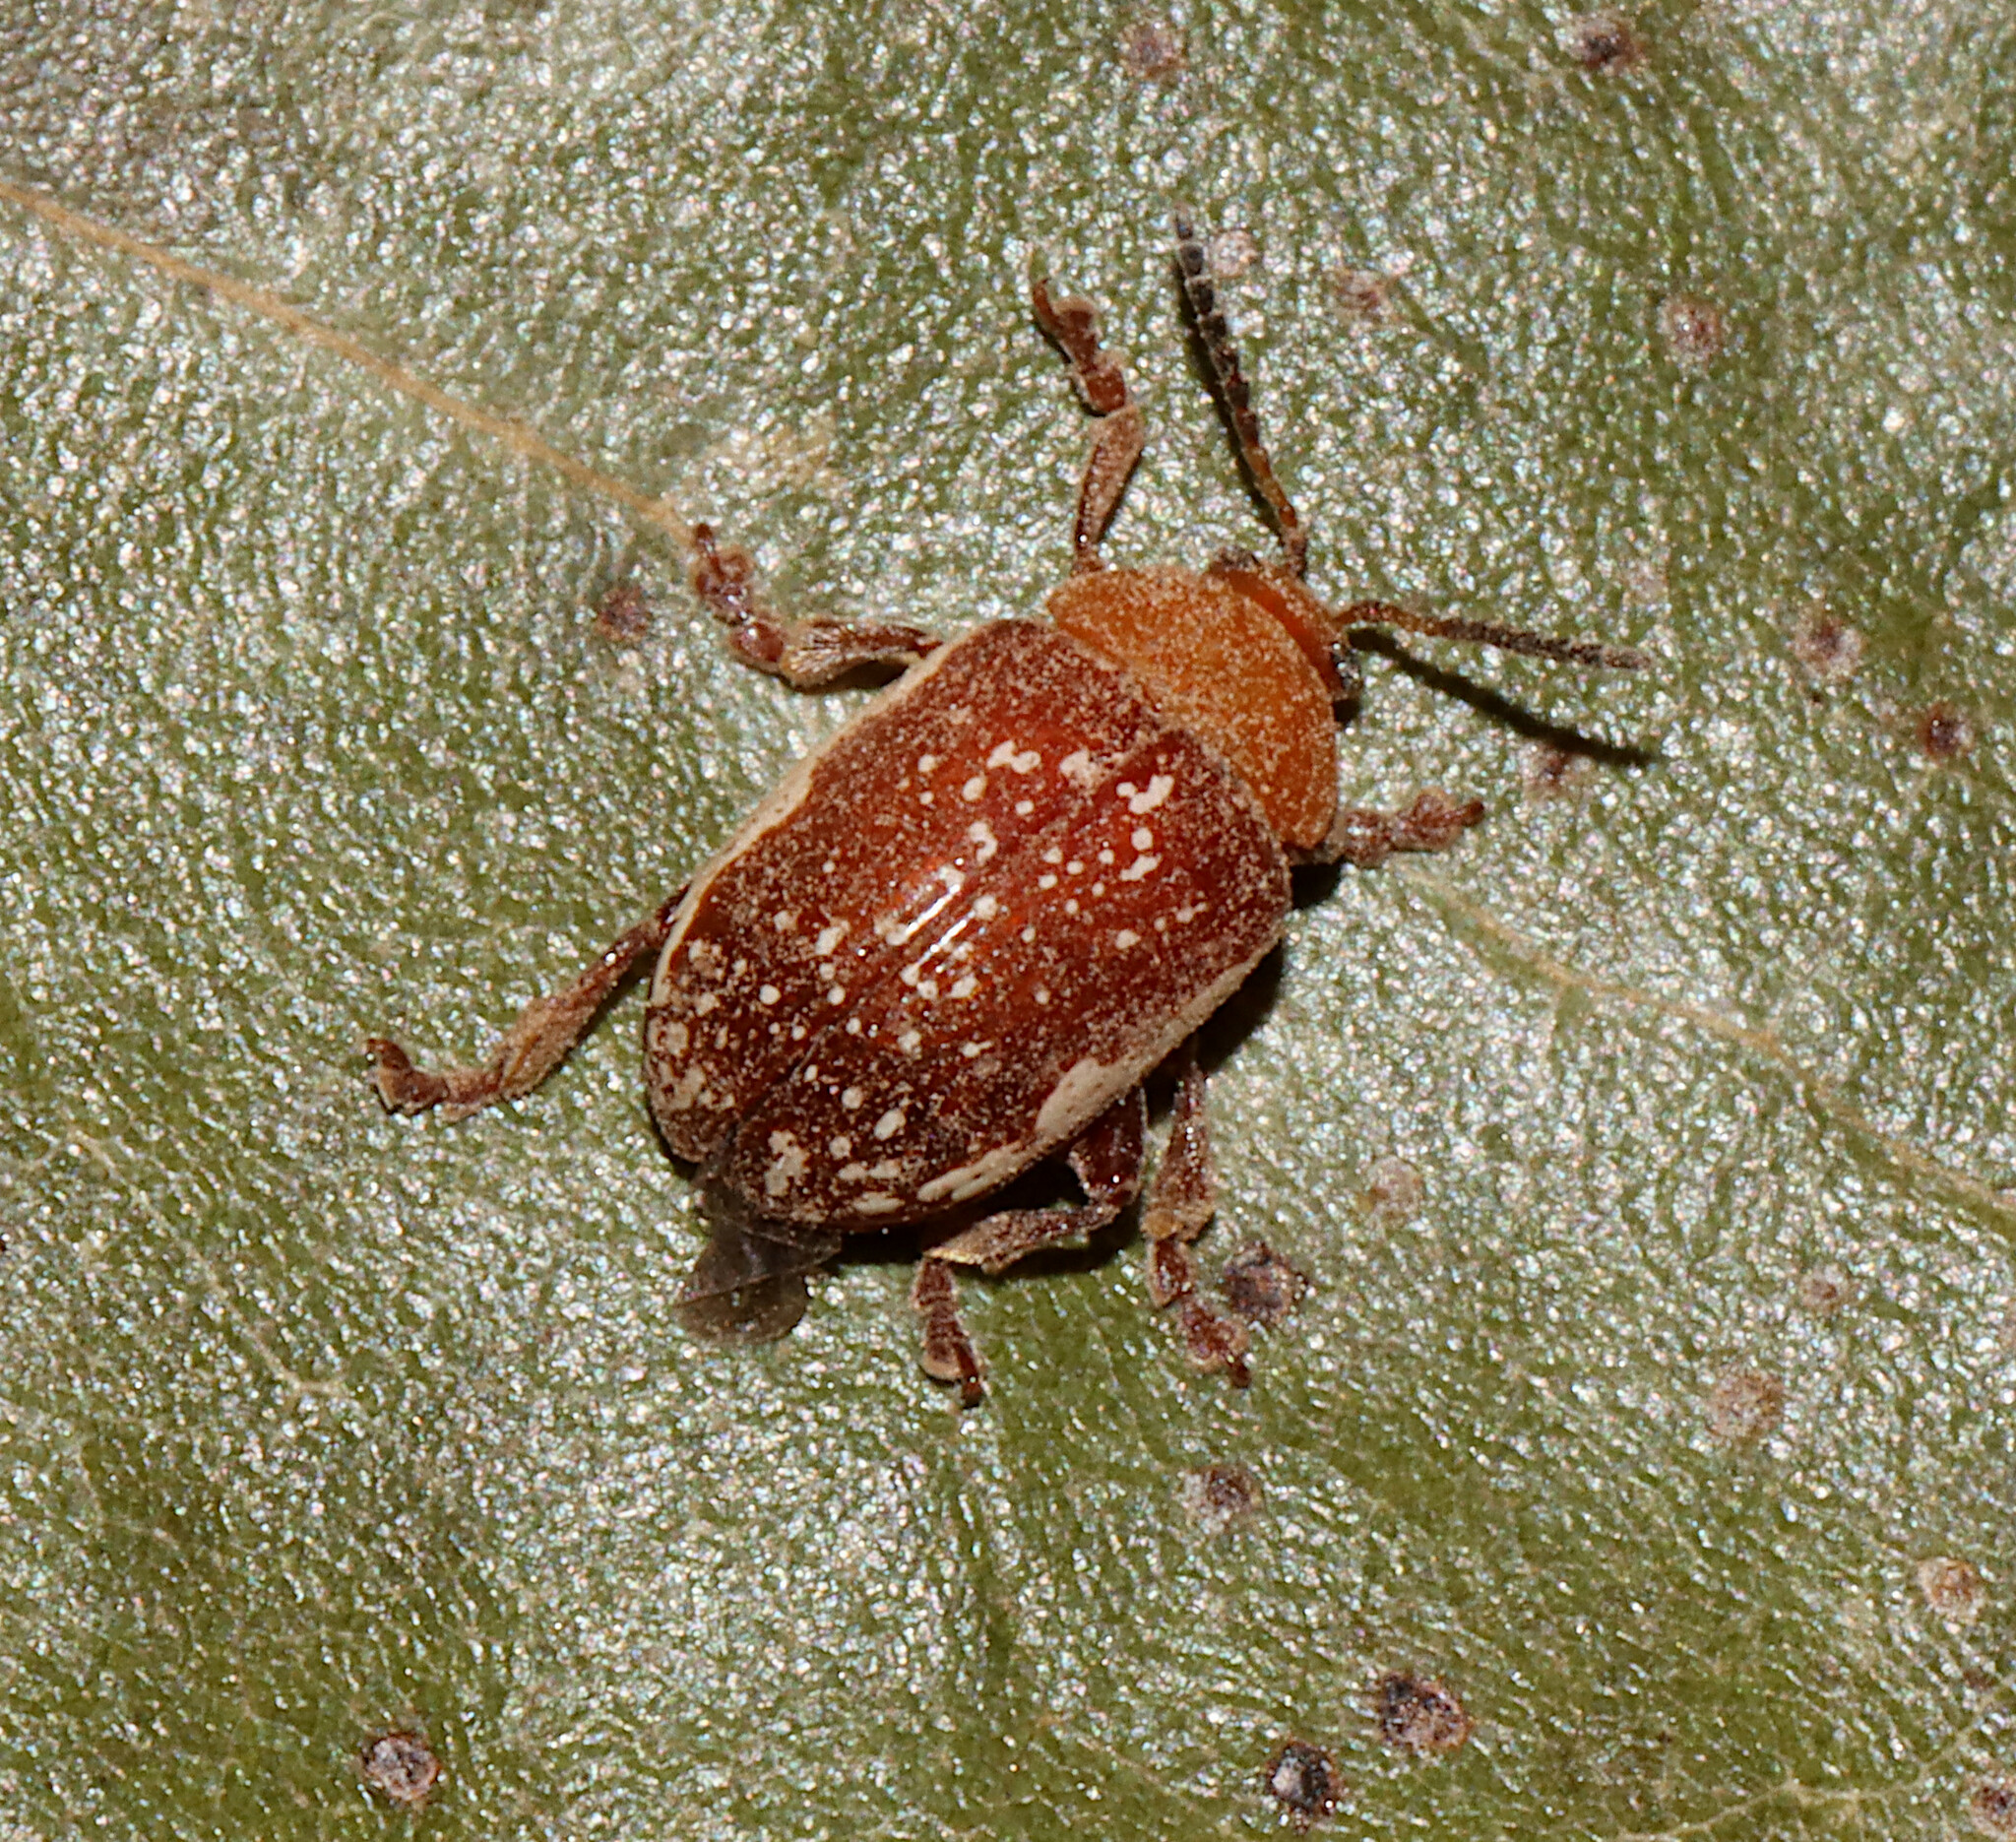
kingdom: Animalia
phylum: Arthropoda
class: Insecta
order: Coleoptera
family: Chrysomelidae
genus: Blepharida
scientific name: Blepharida rhois
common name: Sumac flea beetle
